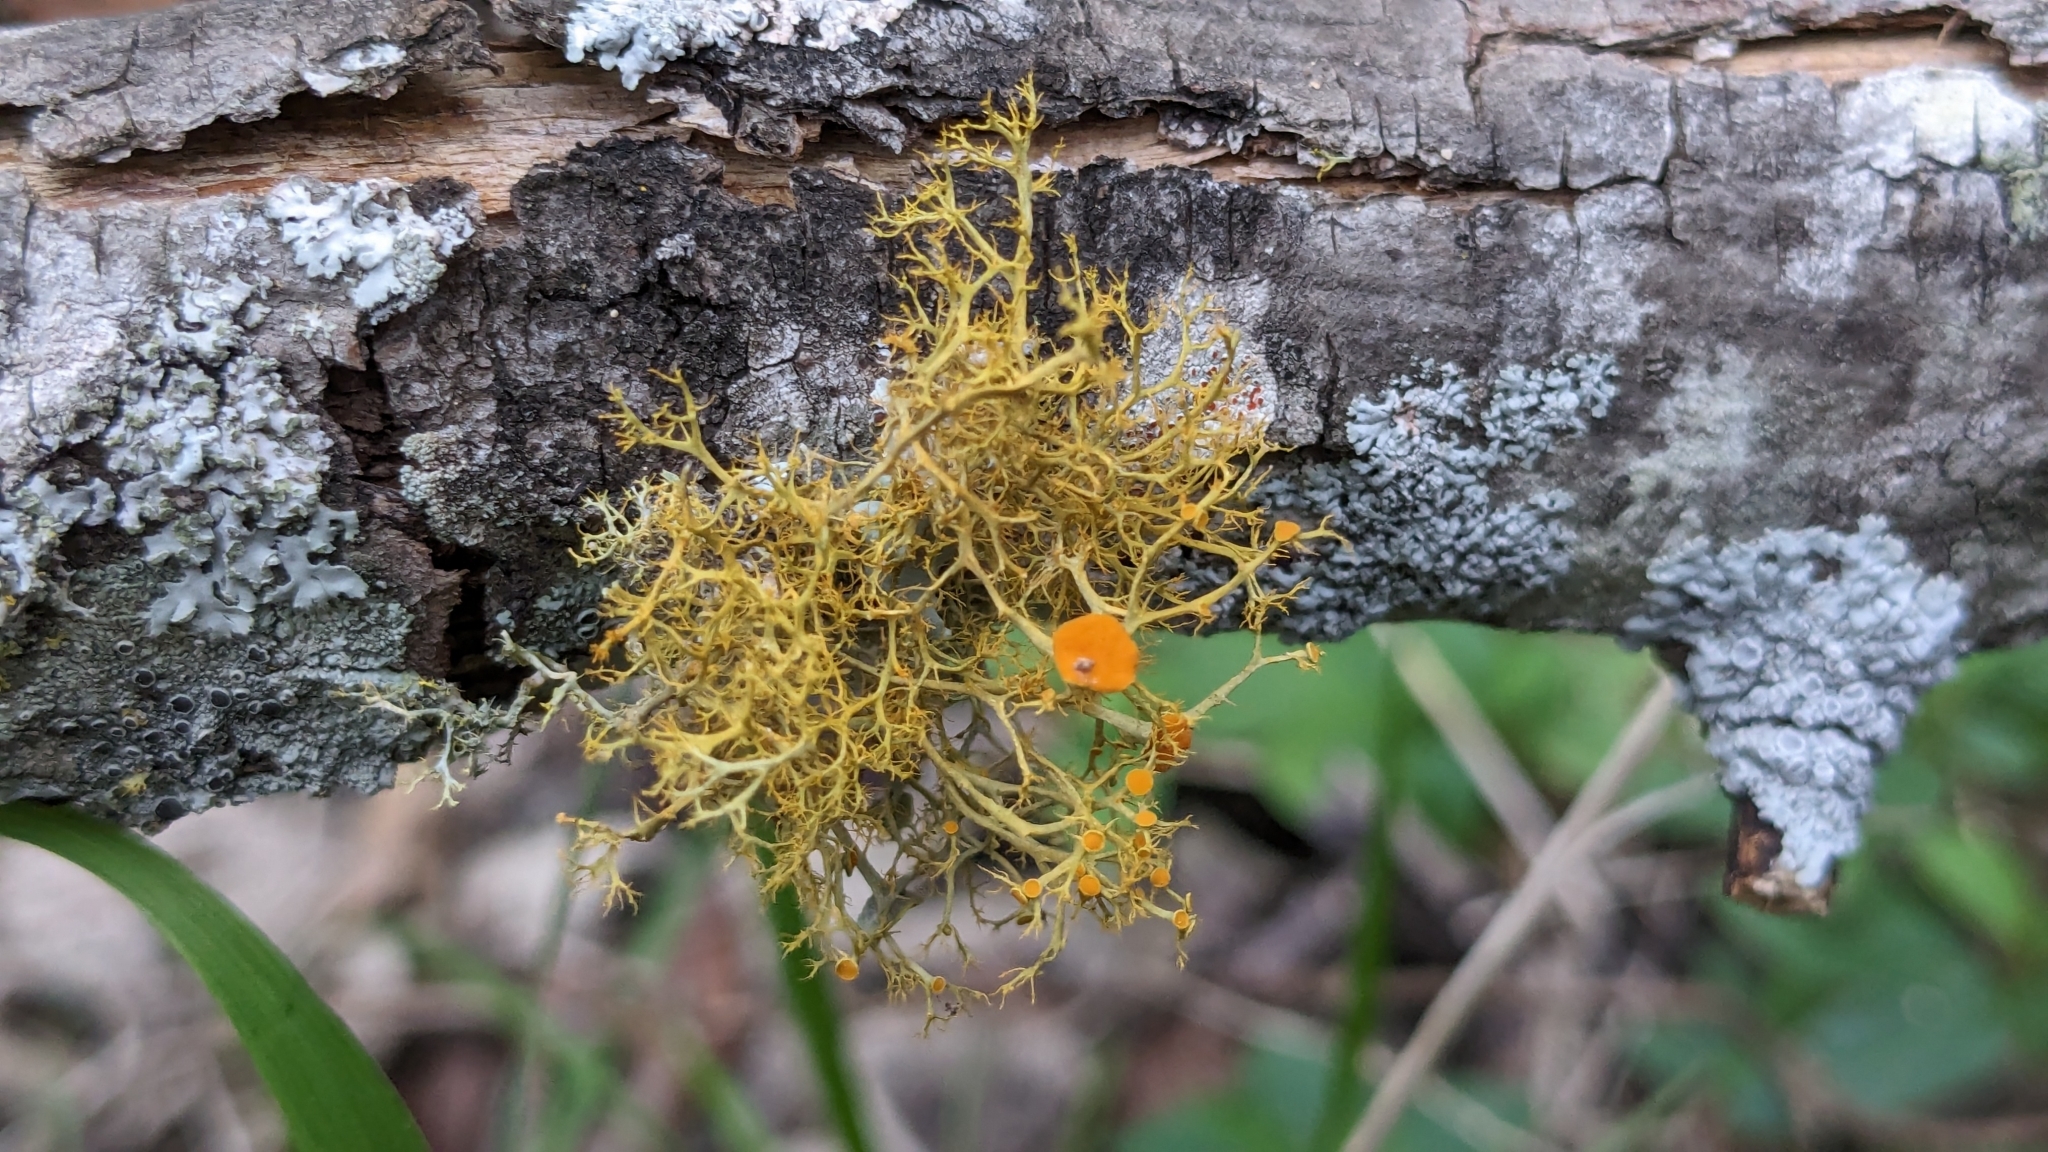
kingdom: Fungi
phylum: Ascomycota
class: Lecanoromycetes
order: Teloschistales
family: Teloschistaceae
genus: Teloschistes
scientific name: Teloschistes exilis
